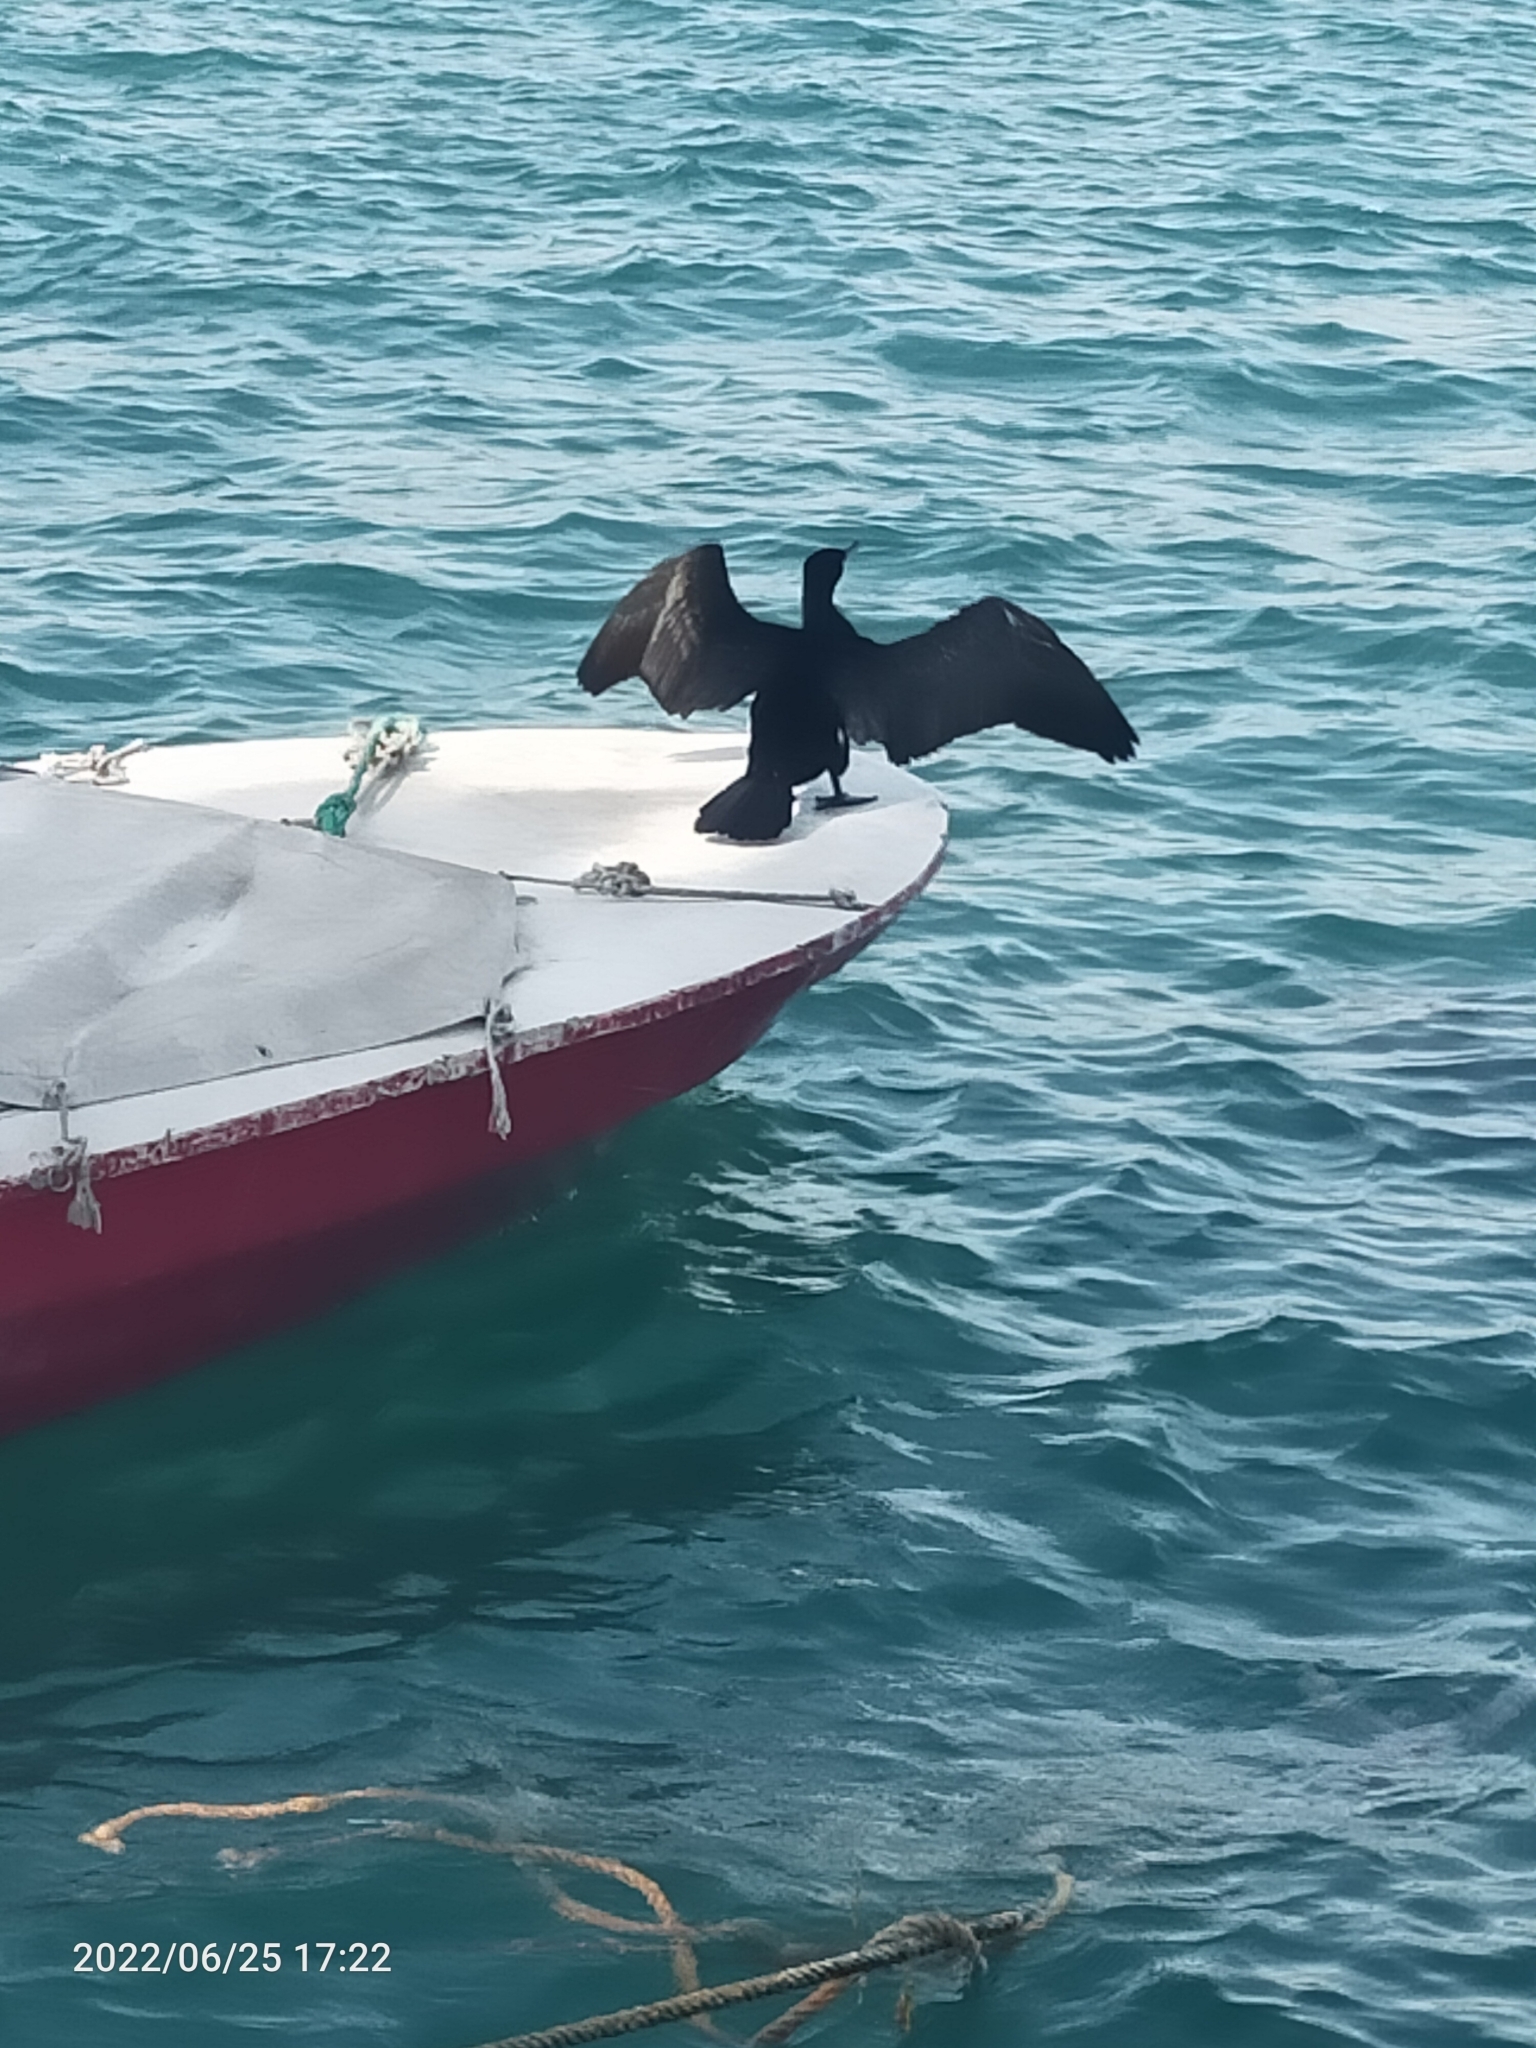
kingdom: Animalia
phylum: Chordata
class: Aves
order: Suliformes
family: Phalacrocoracidae
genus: Phalacrocorax
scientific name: Phalacrocorax carbo
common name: Great cormorant
